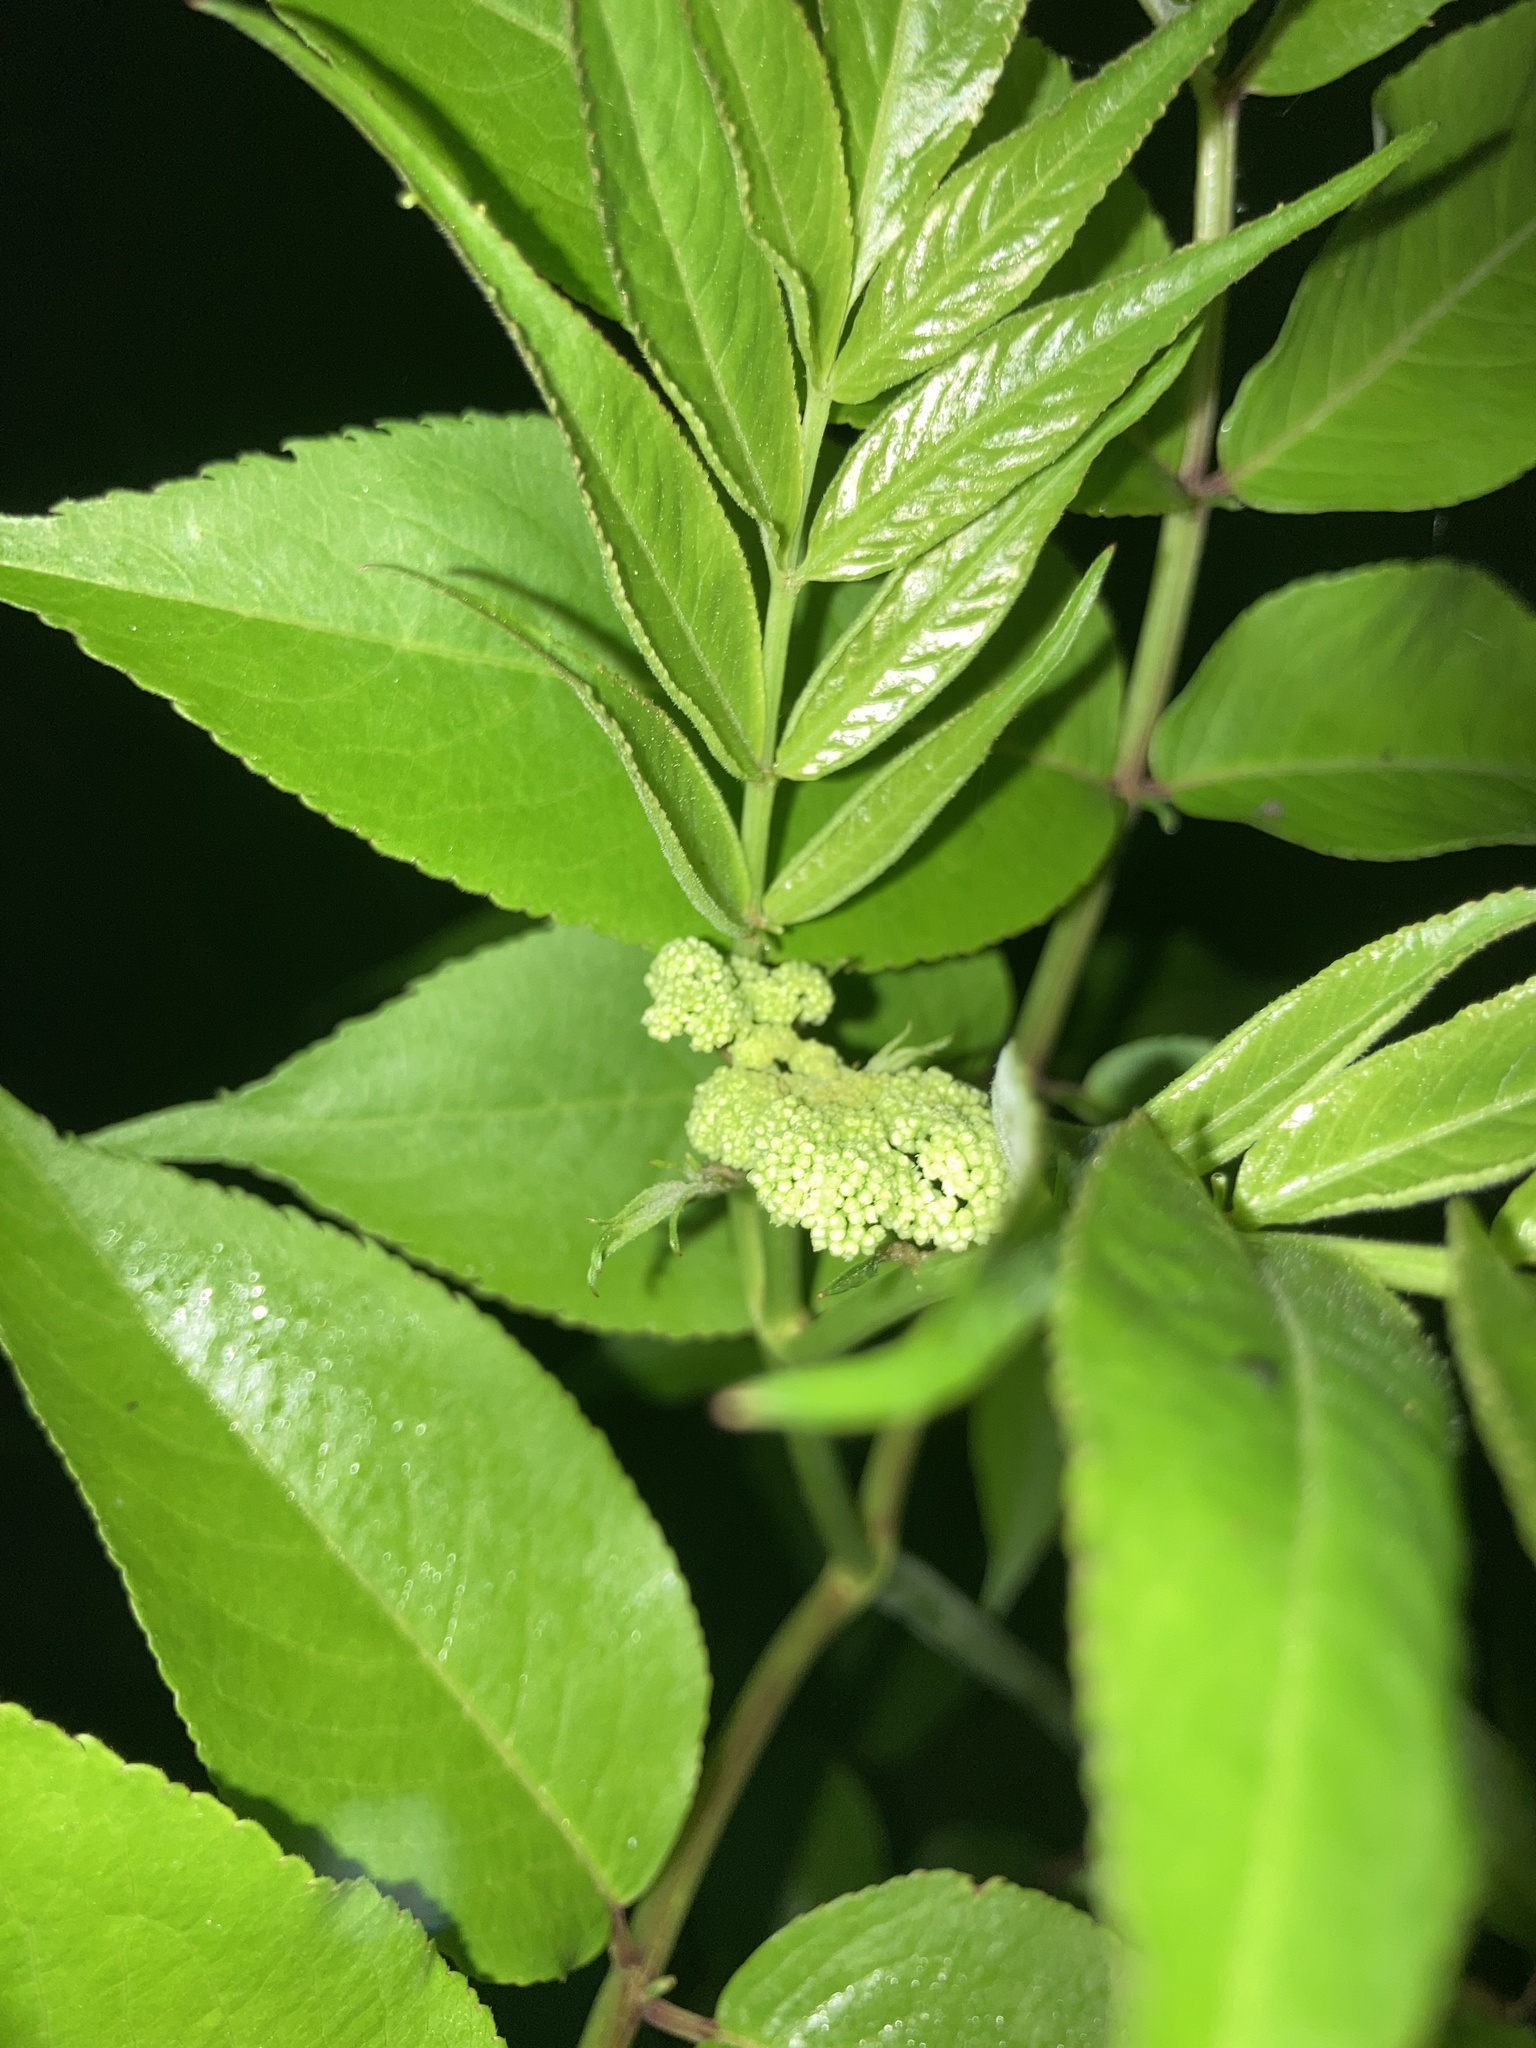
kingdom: Plantae
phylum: Tracheophyta
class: Magnoliopsida
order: Dipsacales
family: Viburnaceae
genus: Sambucus
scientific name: Sambucus canadensis
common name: American elder
